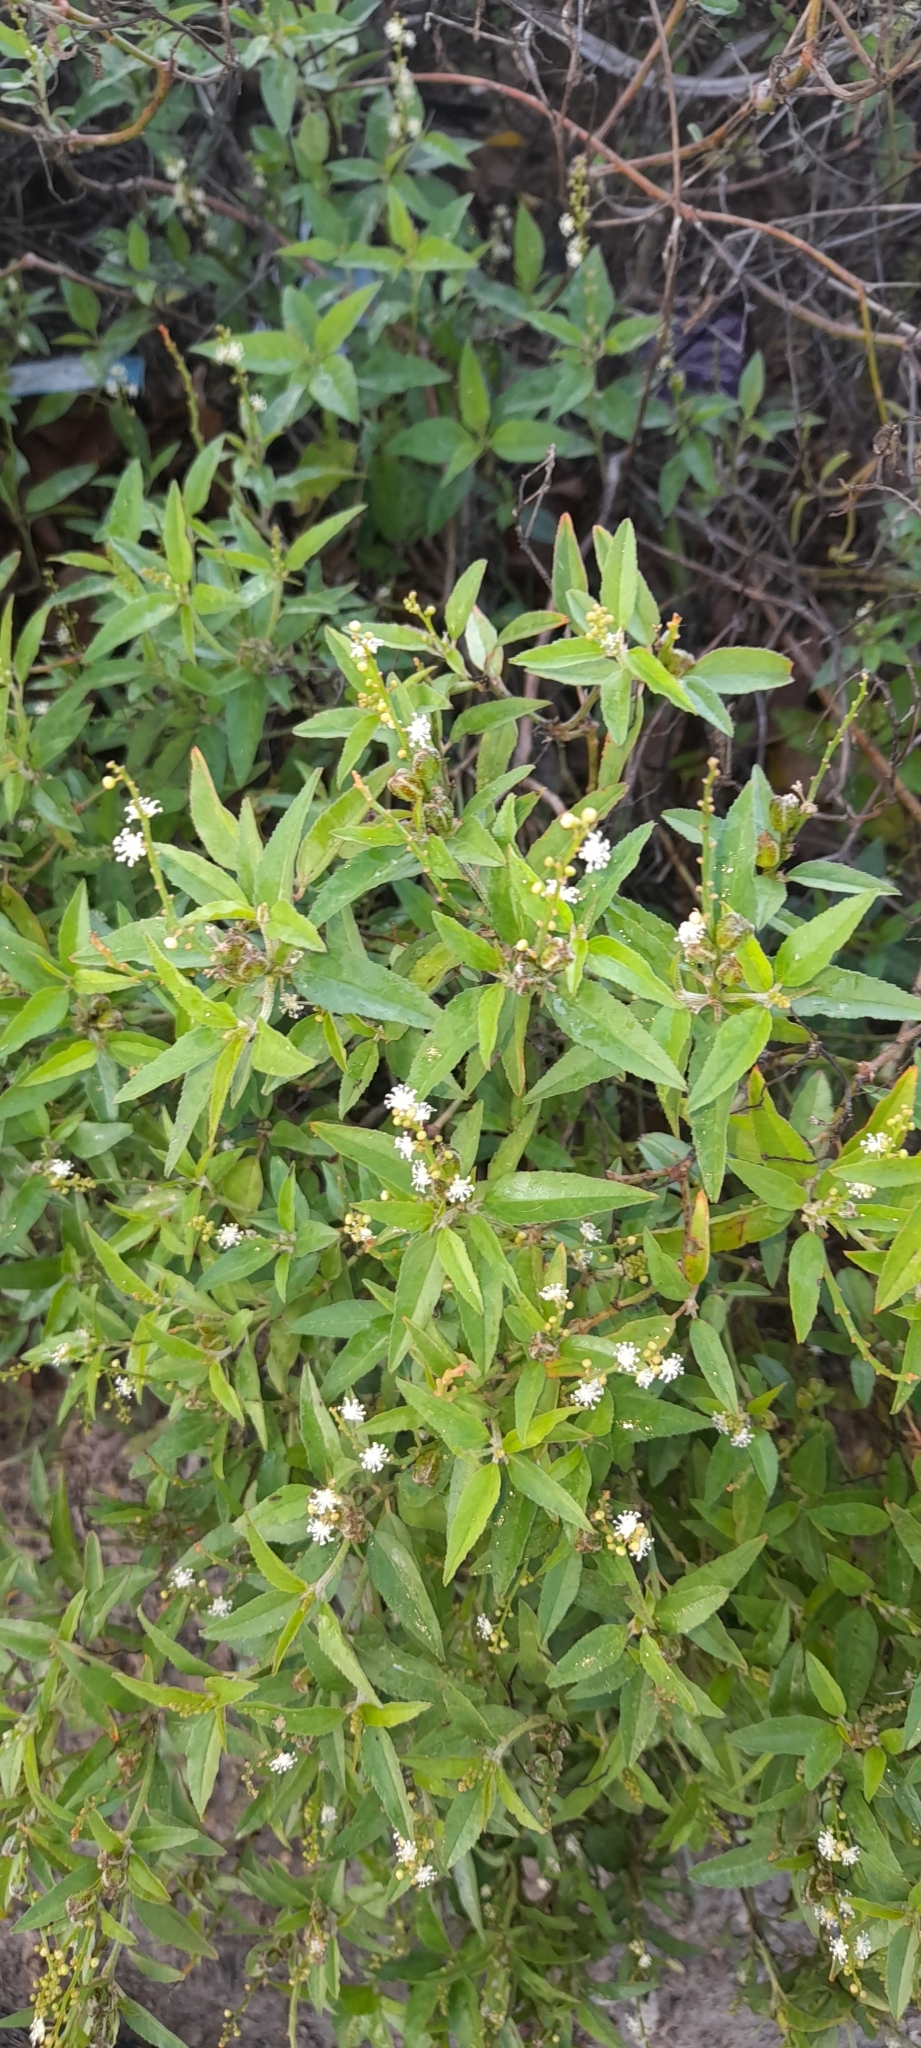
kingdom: Plantae
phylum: Tracheophyta
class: Magnoliopsida
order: Malpighiales
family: Euphorbiaceae
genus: Croton
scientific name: Croton bonplandianus
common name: Bonpland's croton
